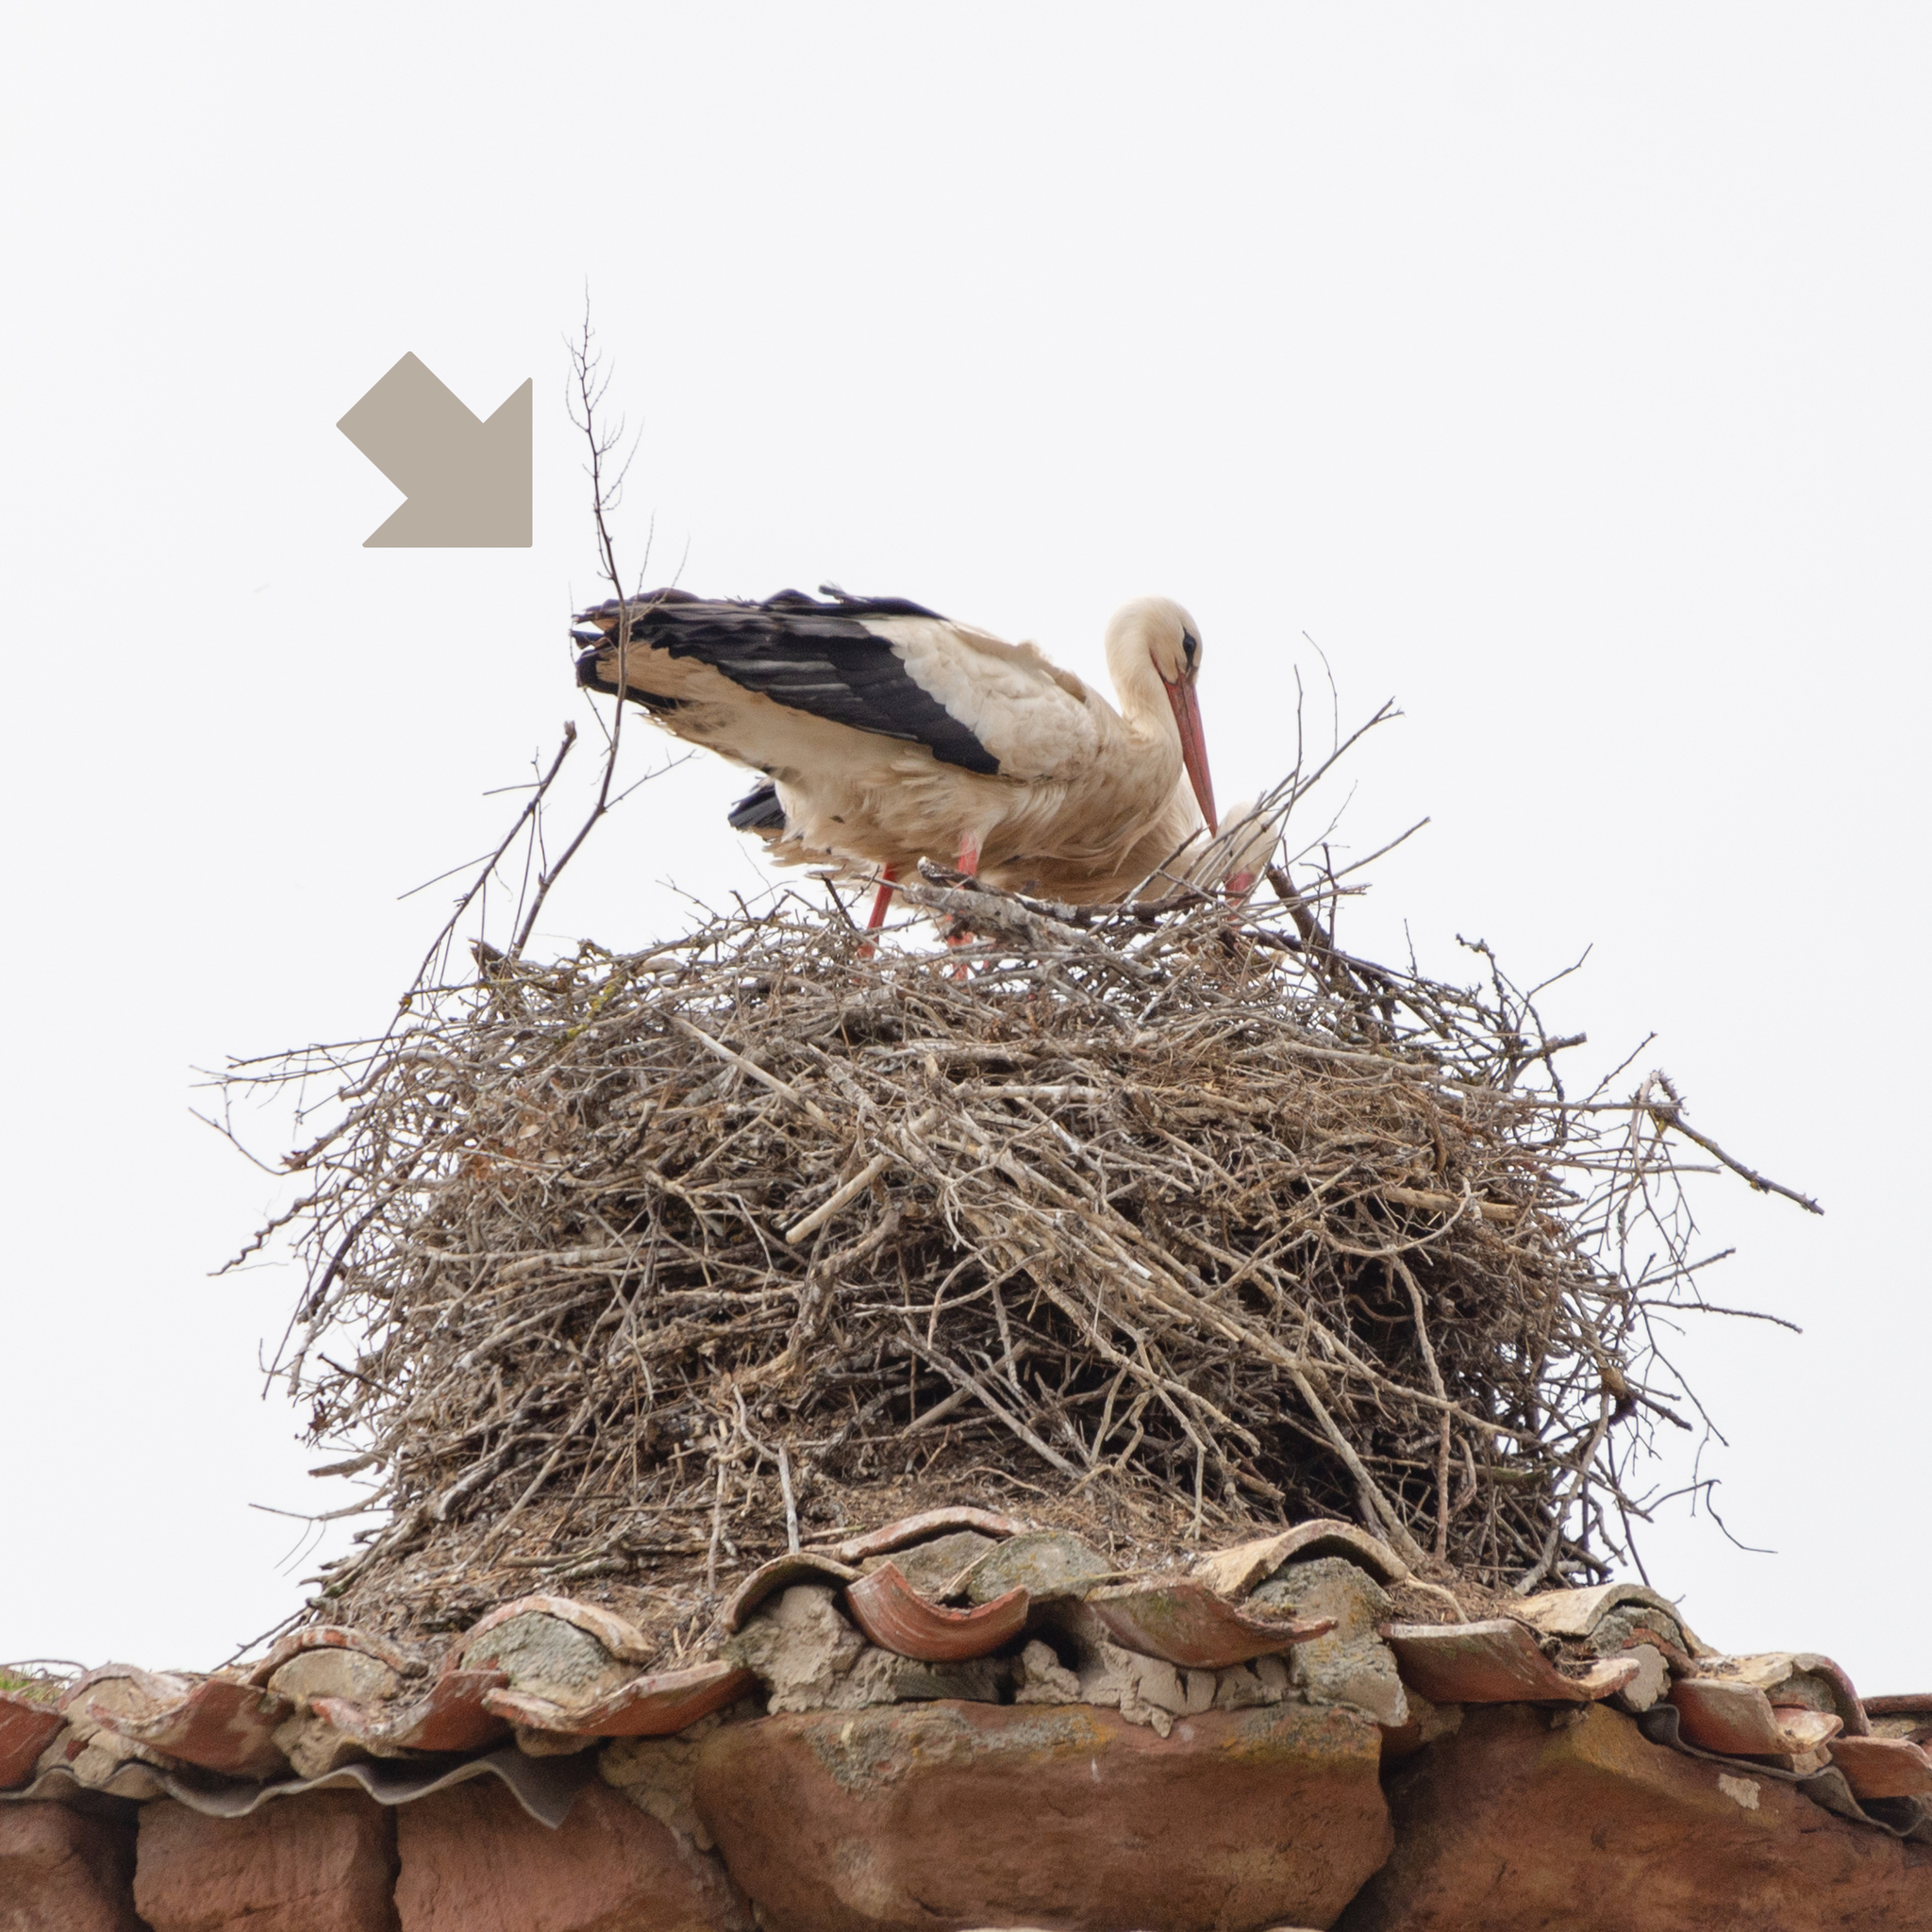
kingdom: Animalia
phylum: Chordata
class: Aves
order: Ciconiiformes
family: Ciconiidae
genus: Ciconia
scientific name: Ciconia ciconia
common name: White stork
